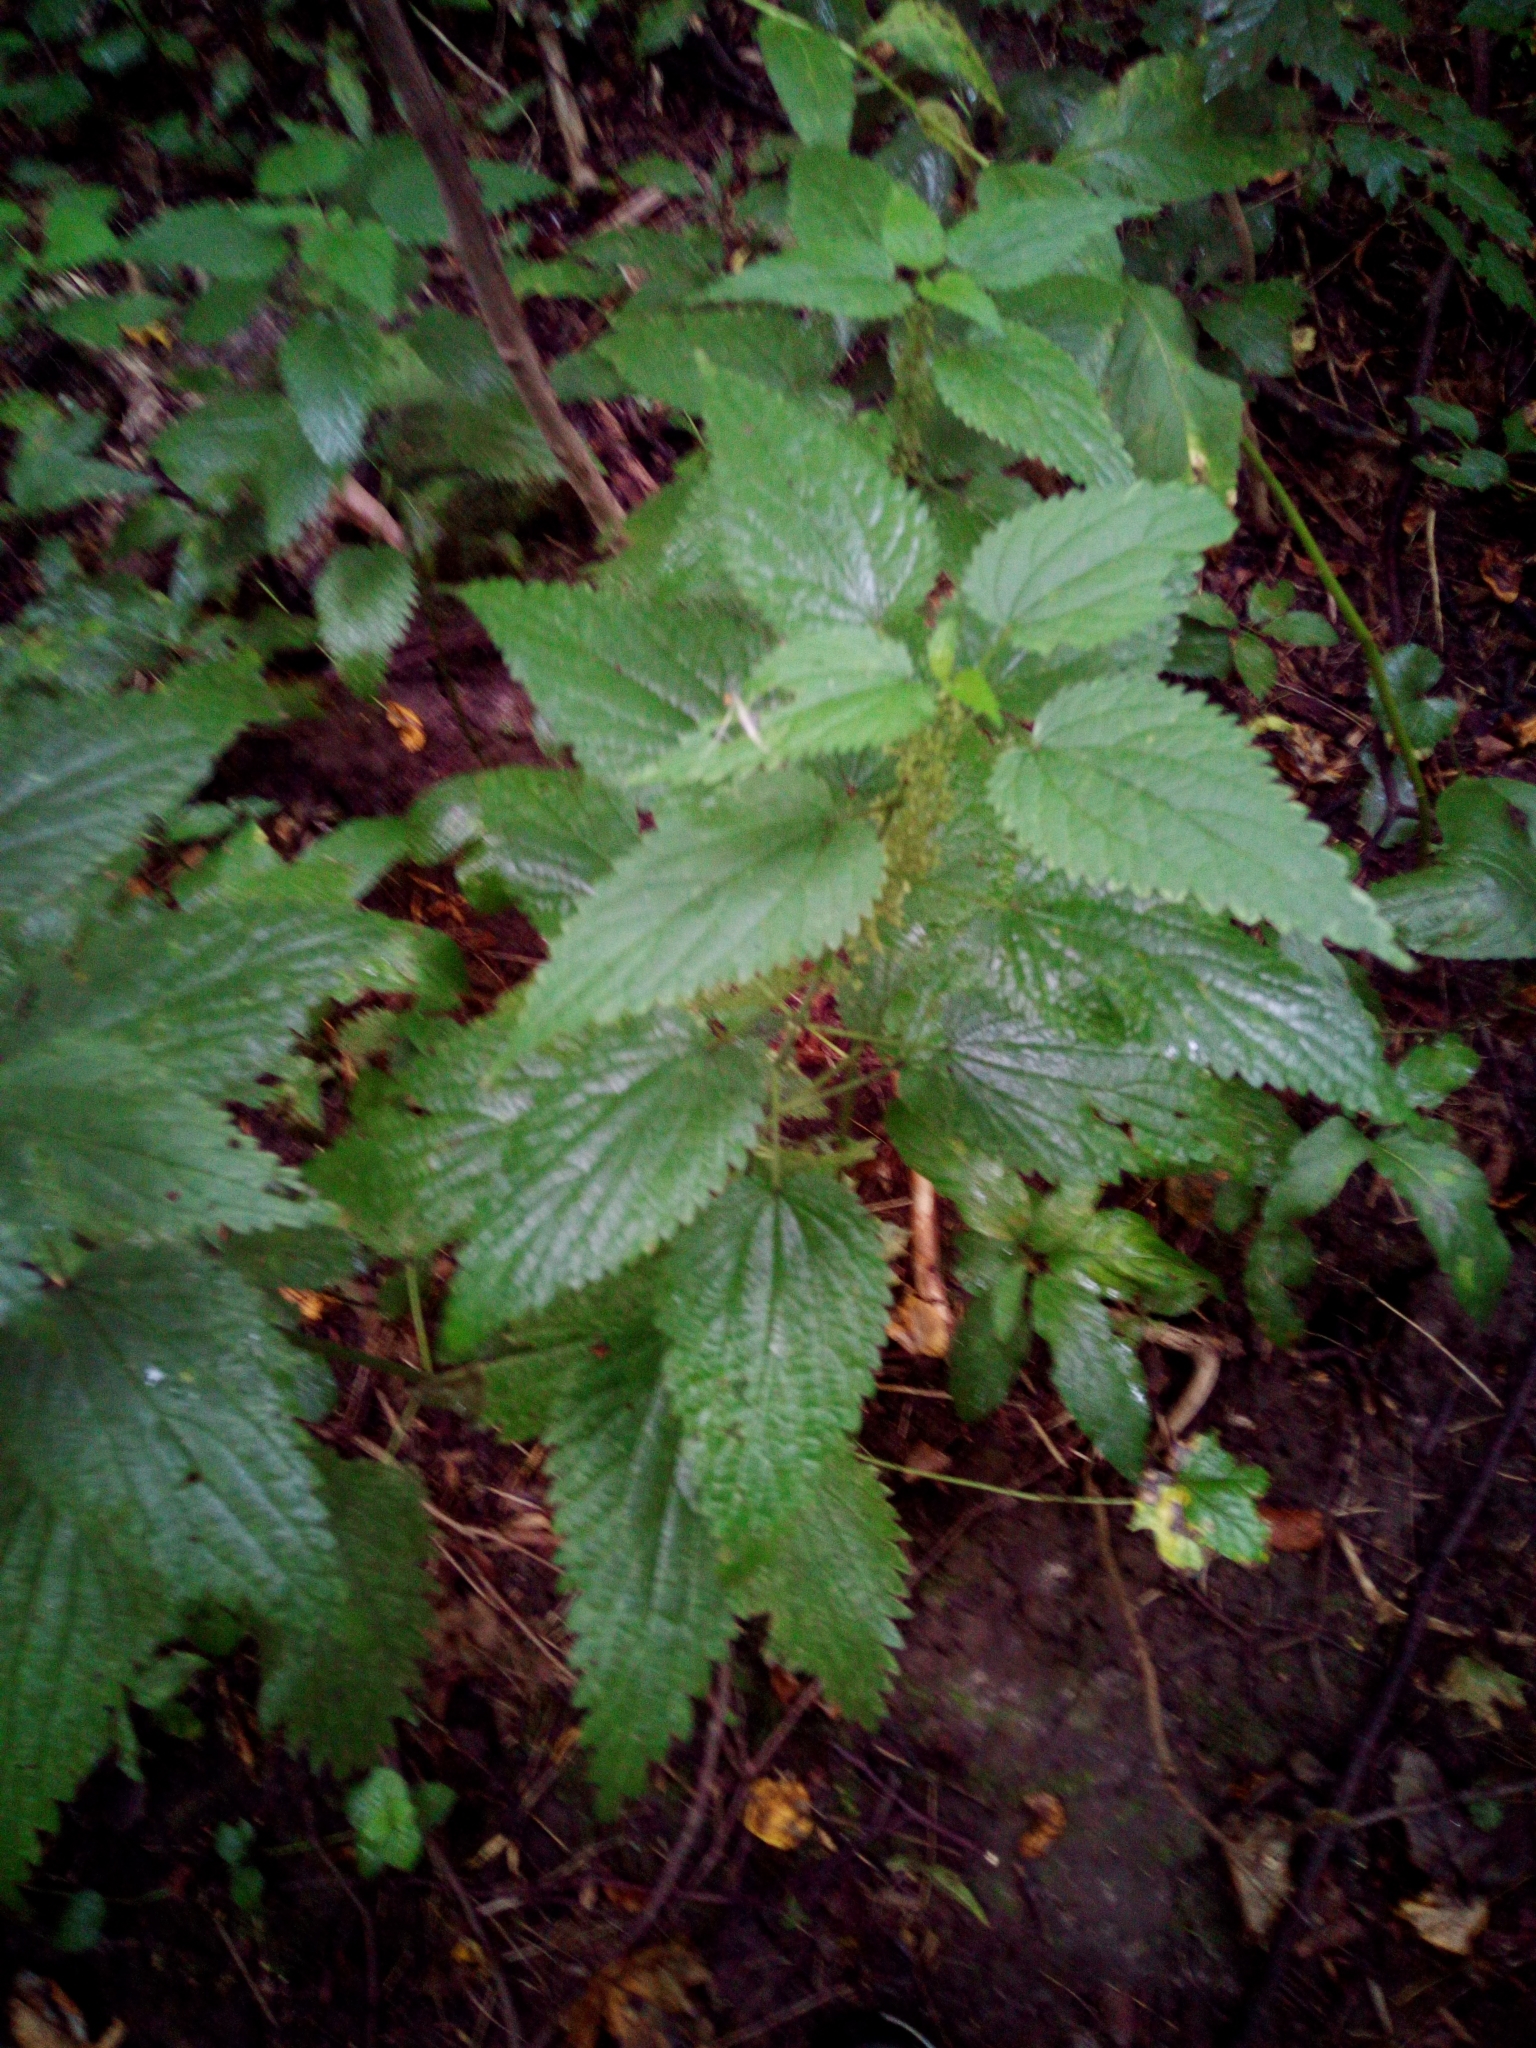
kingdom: Plantae
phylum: Tracheophyta
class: Magnoliopsida
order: Rosales
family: Urticaceae
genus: Urtica
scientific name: Urtica dioica
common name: Common nettle
